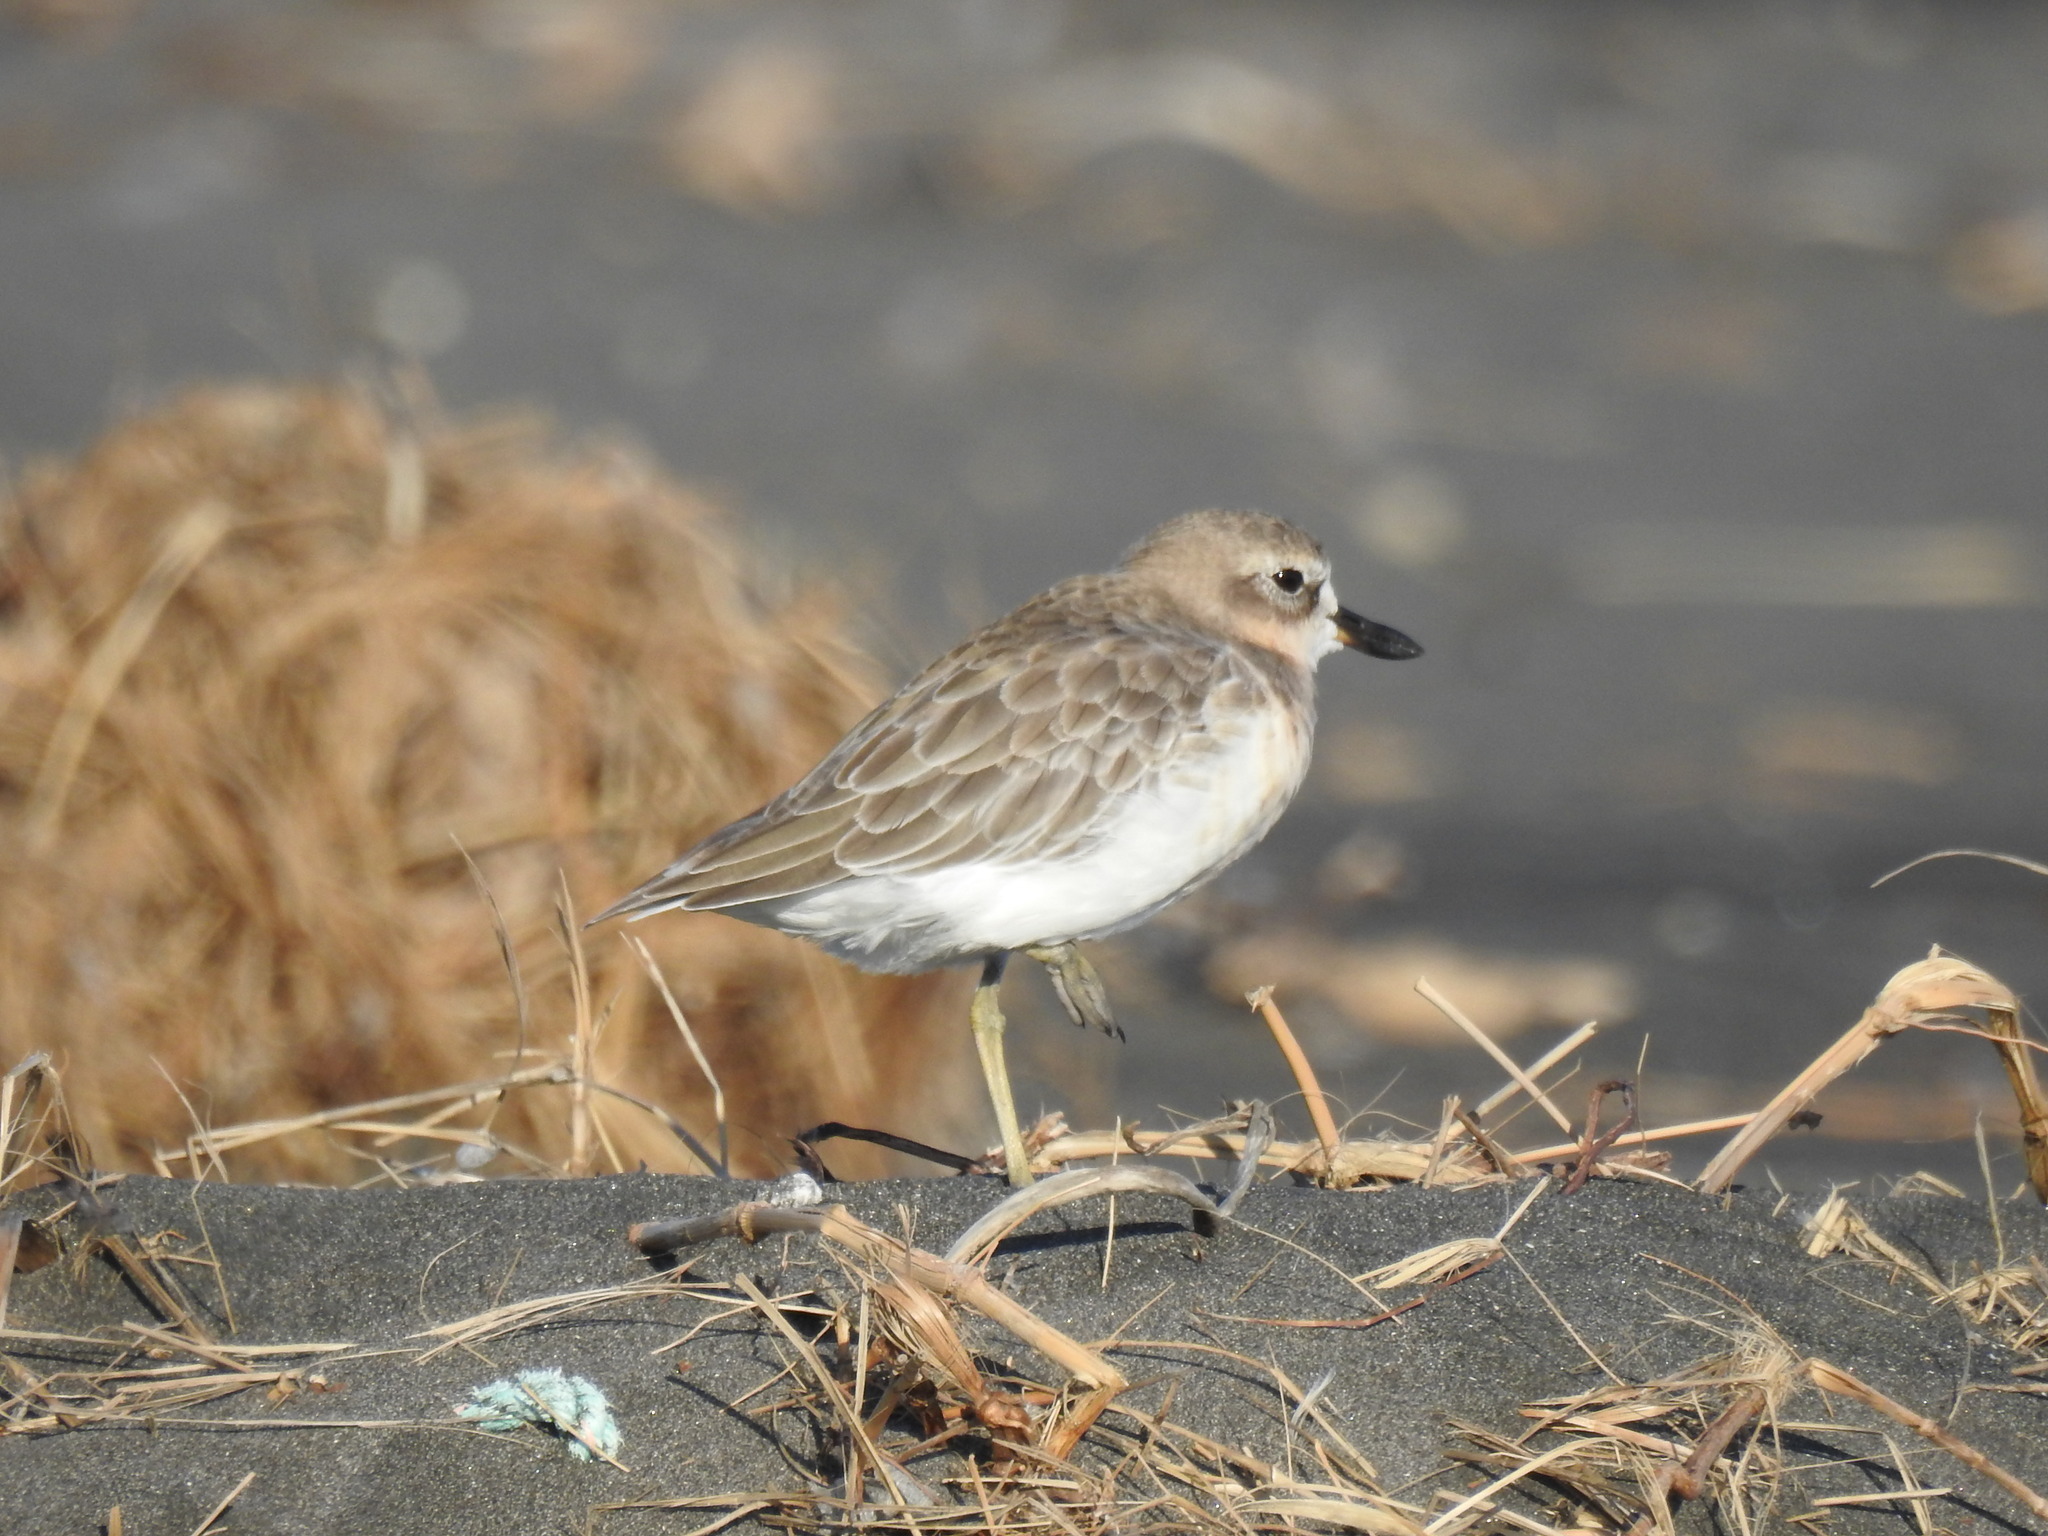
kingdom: Animalia
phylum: Chordata
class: Aves
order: Charadriiformes
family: Charadriidae
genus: Anarhynchus
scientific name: Anarhynchus
